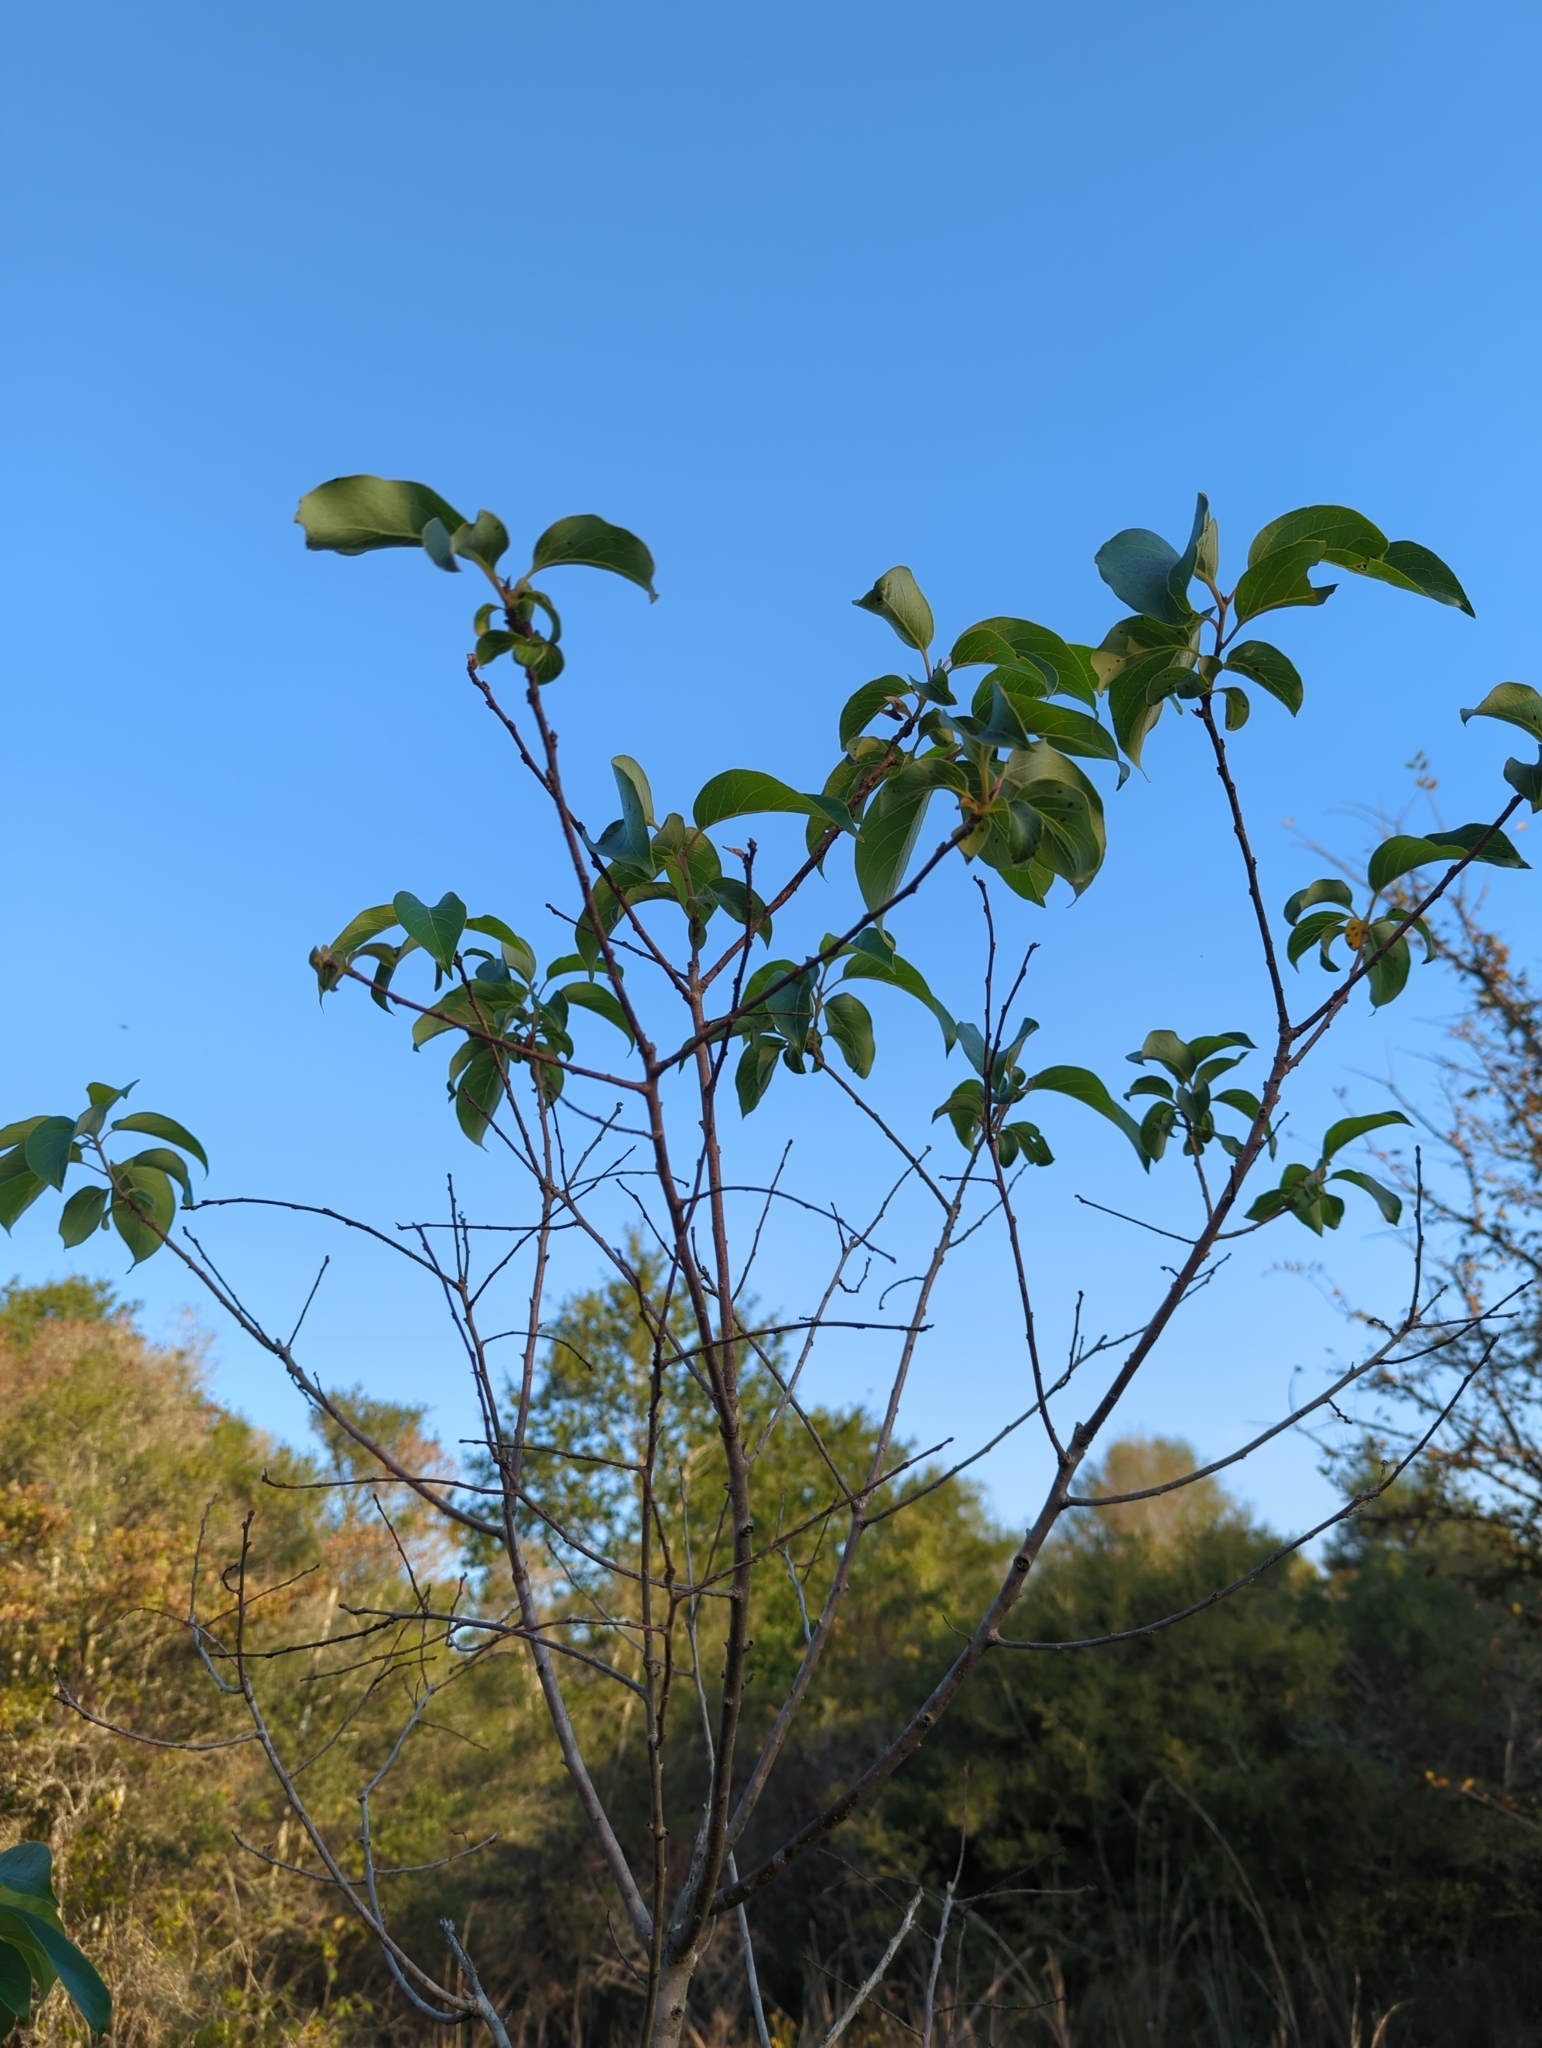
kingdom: Plantae
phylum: Tracheophyta
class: Magnoliopsida
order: Ericales
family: Ebenaceae
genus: Diospyros
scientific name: Diospyros virginiana
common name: Persimmon
